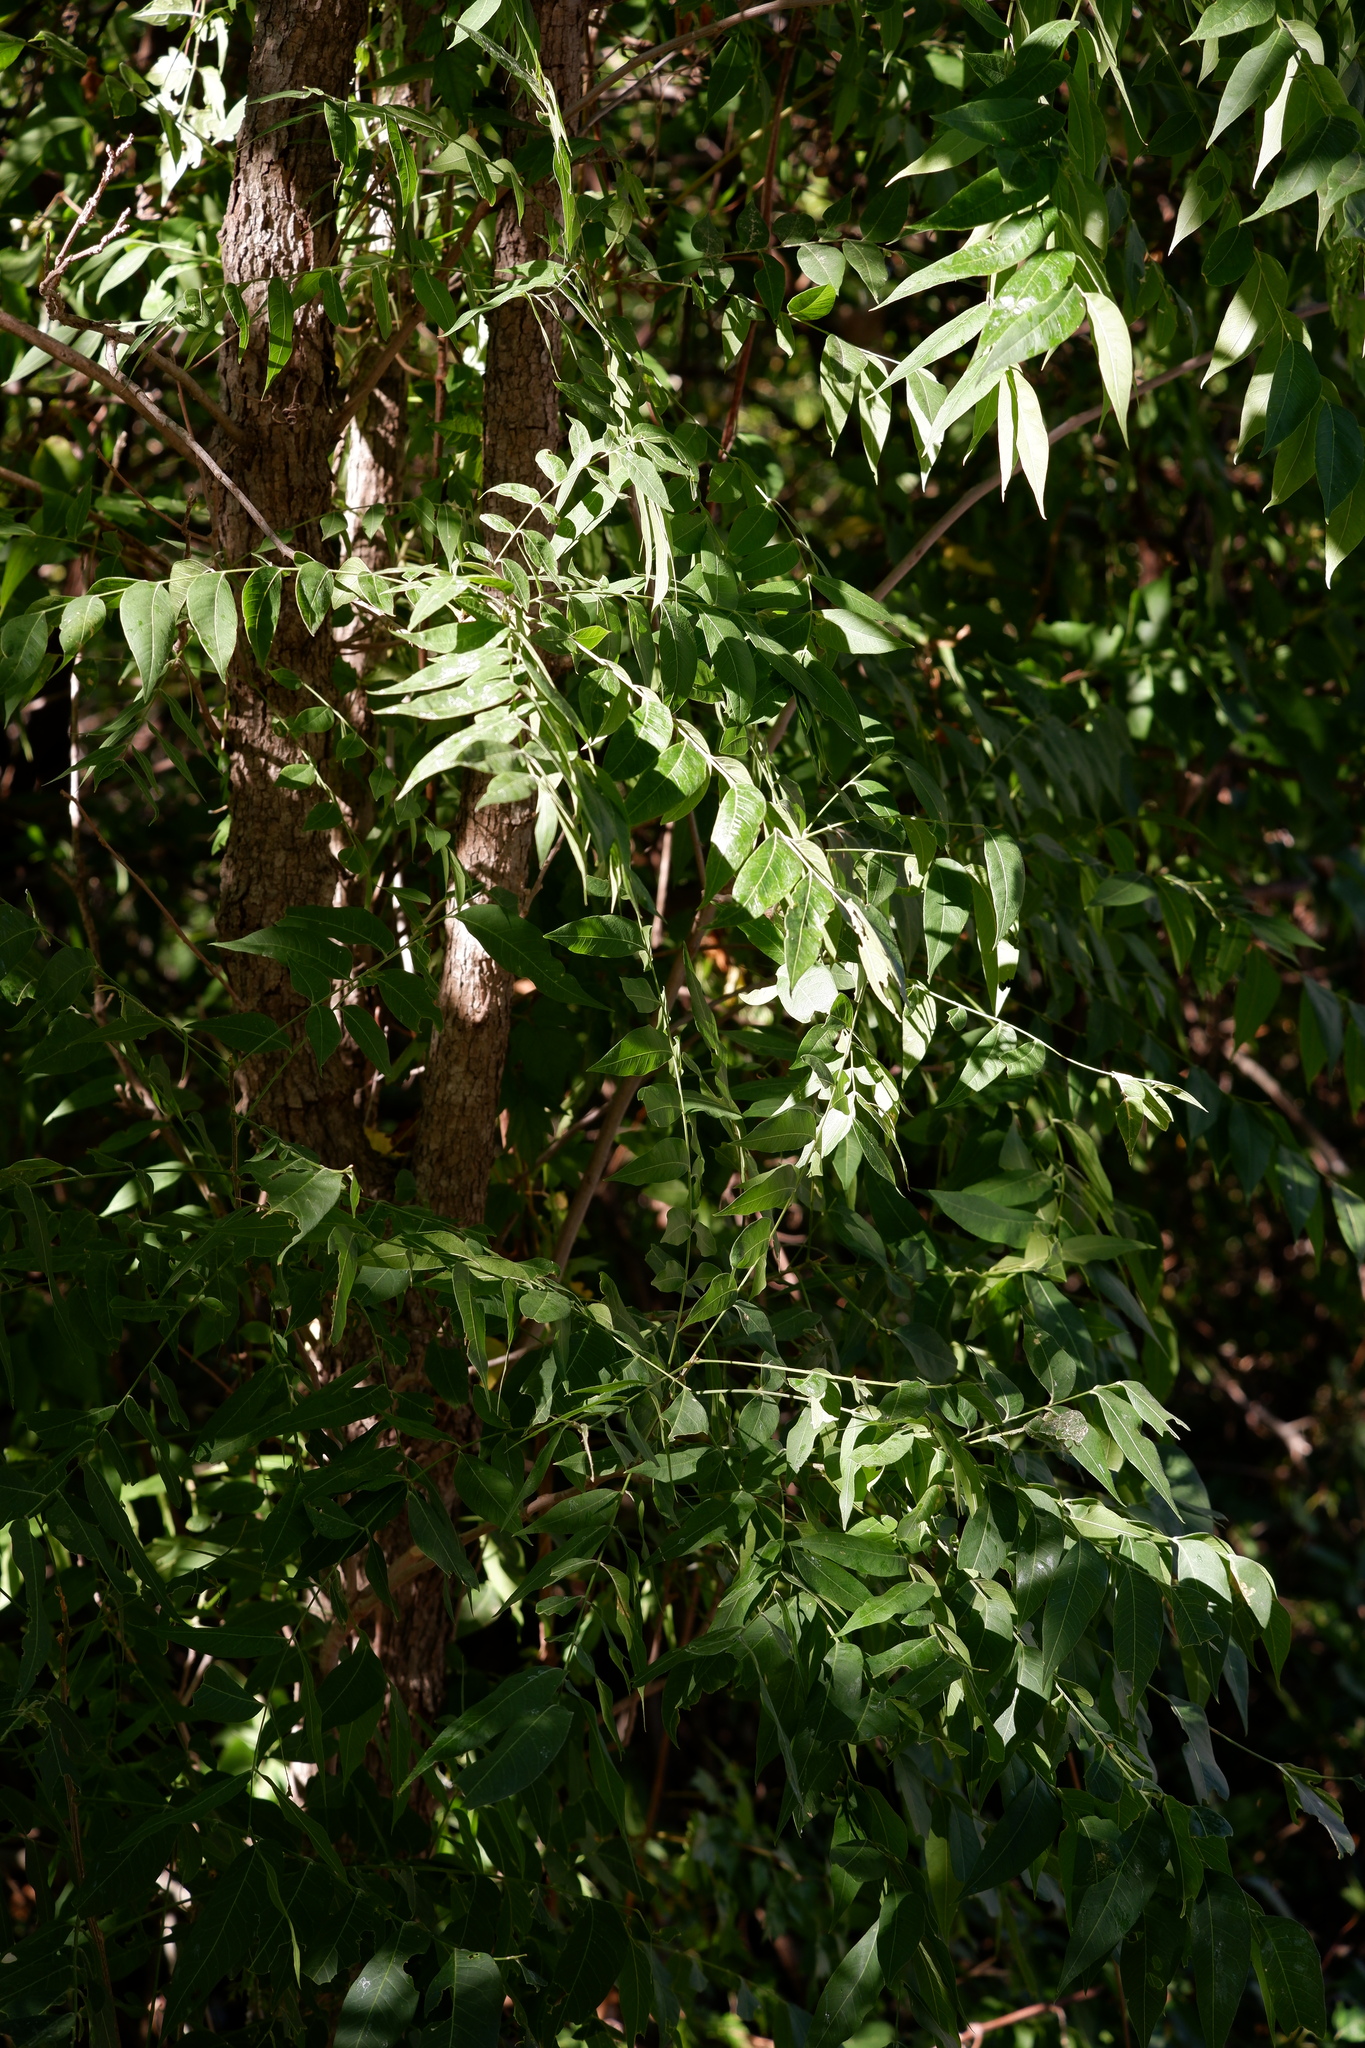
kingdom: Plantae
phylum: Tracheophyta
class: Magnoliopsida
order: Sapindales
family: Sapindaceae
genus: Sapindus
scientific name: Sapindus drummondii
